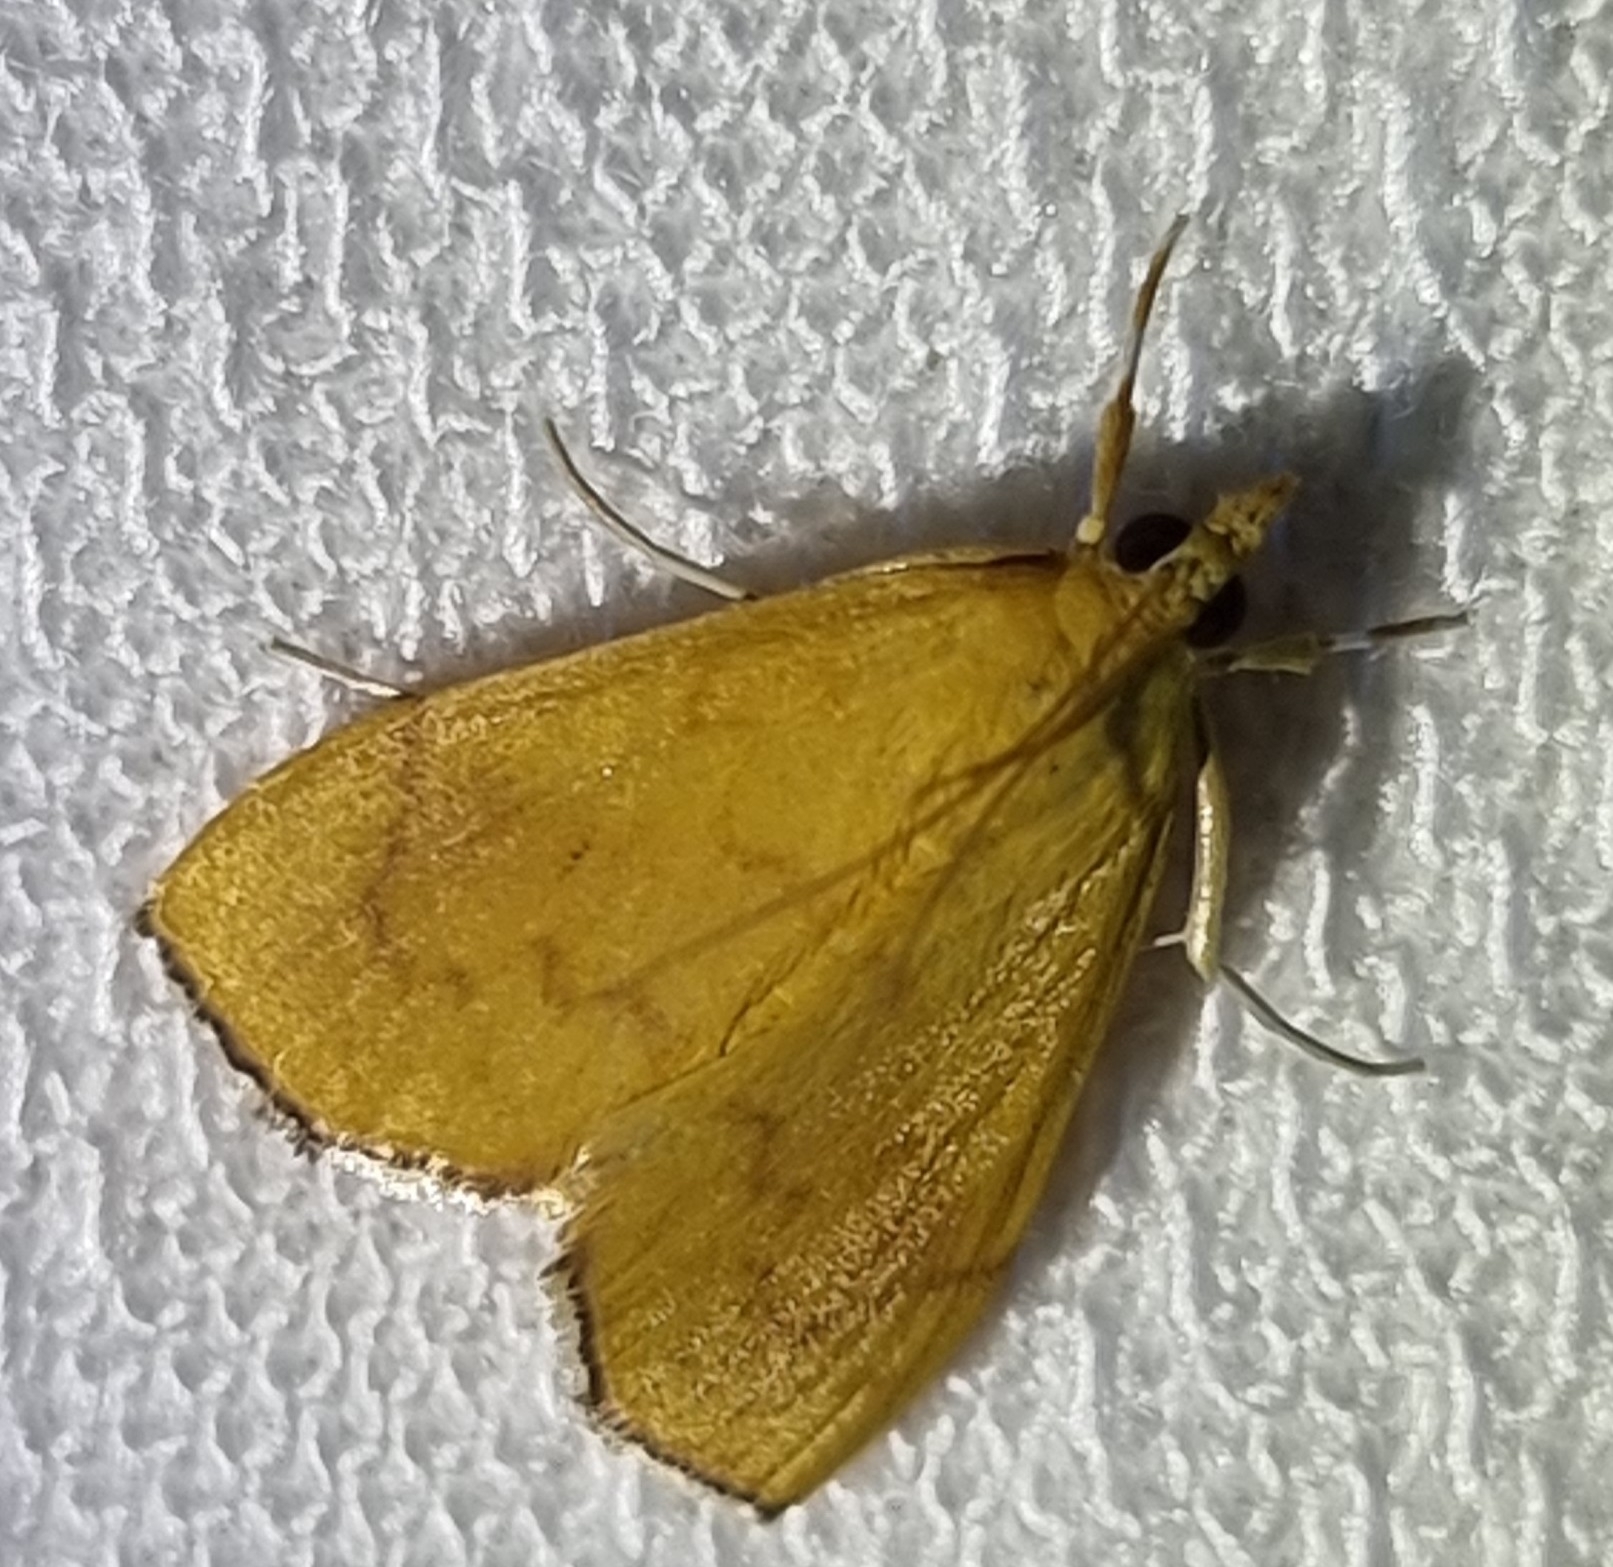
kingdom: Animalia
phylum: Arthropoda
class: Insecta
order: Lepidoptera
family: Crambidae
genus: Hyalobathra
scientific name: Hyalobathra brevialis
